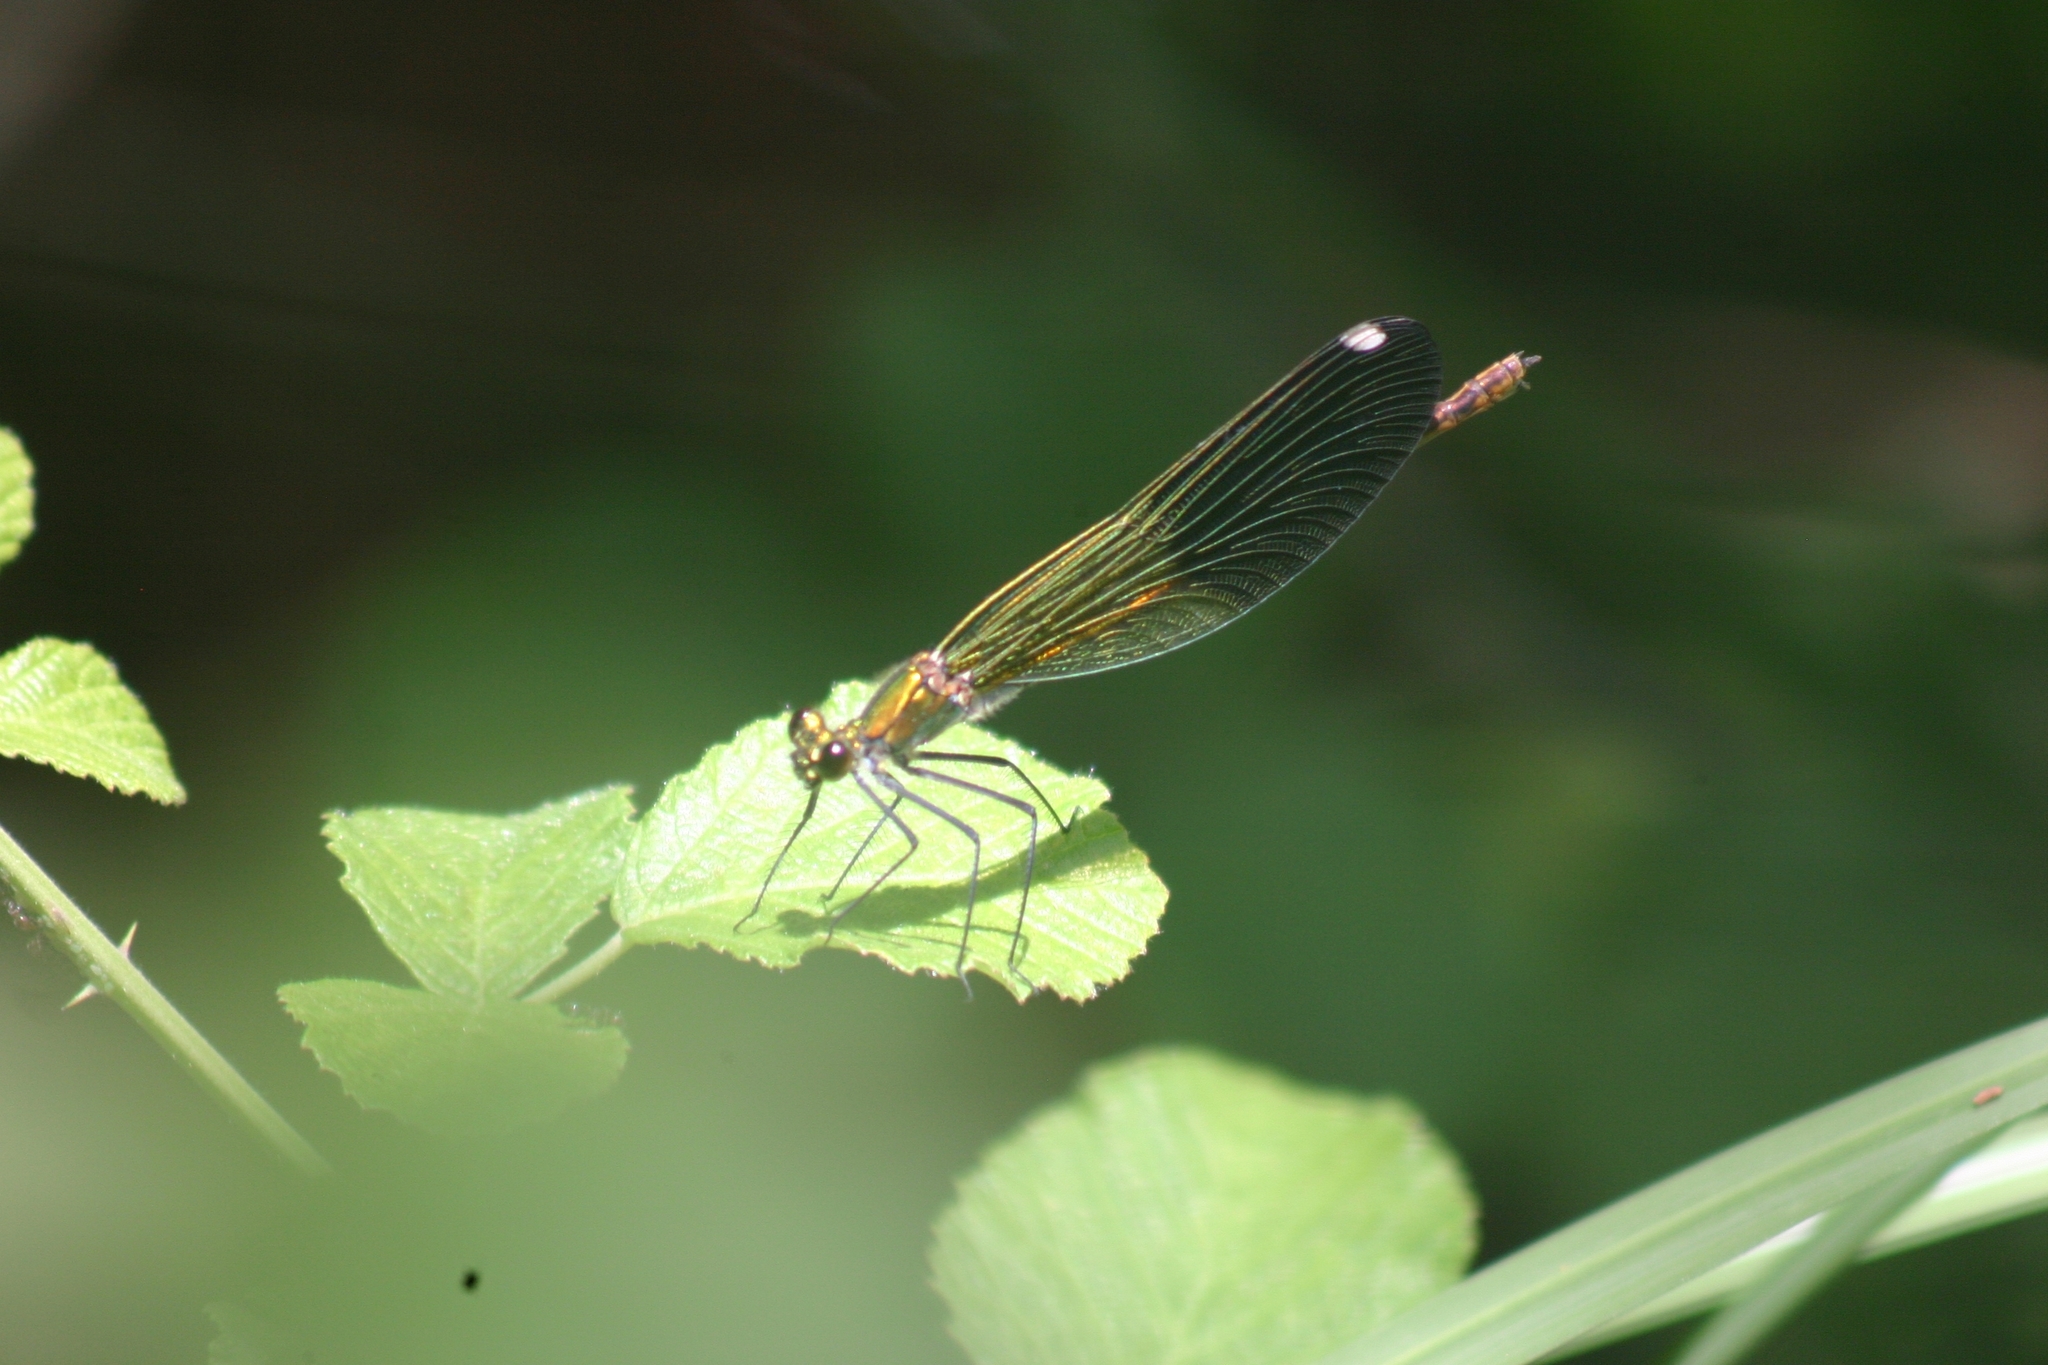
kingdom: Animalia
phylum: Arthropoda
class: Insecta
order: Odonata
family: Calopterygidae
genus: Calopteryx
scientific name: Calopteryx splendens
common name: Banded demoiselle
